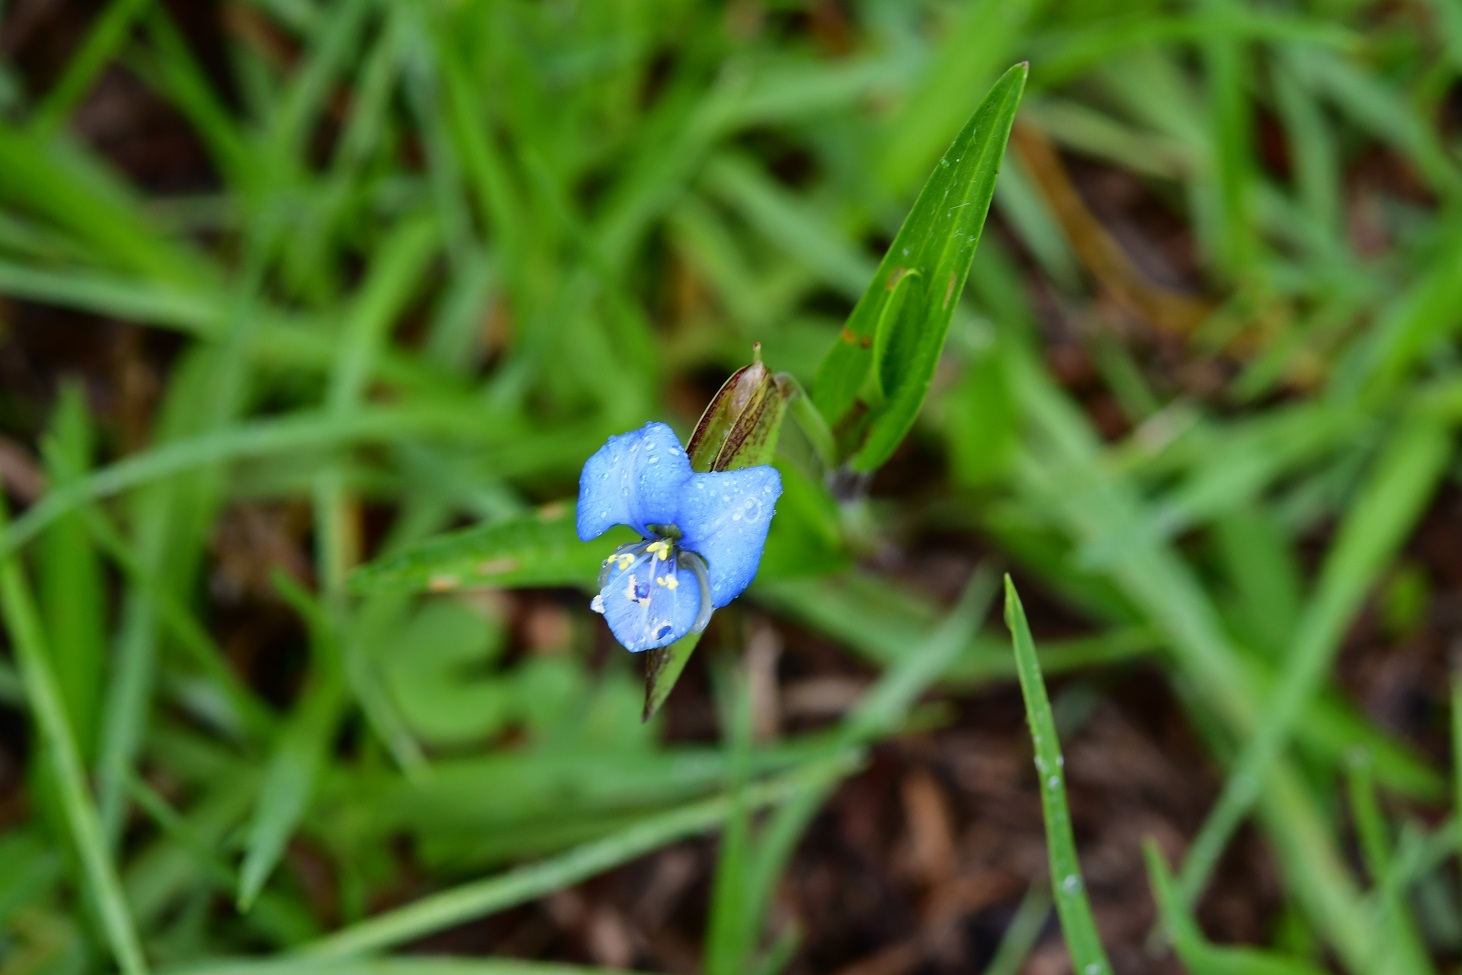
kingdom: Plantae
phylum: Tracheophyta
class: Liliopsida
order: Commelinales
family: Commelinaceae
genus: Commelina
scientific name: Commelina tuberosa
